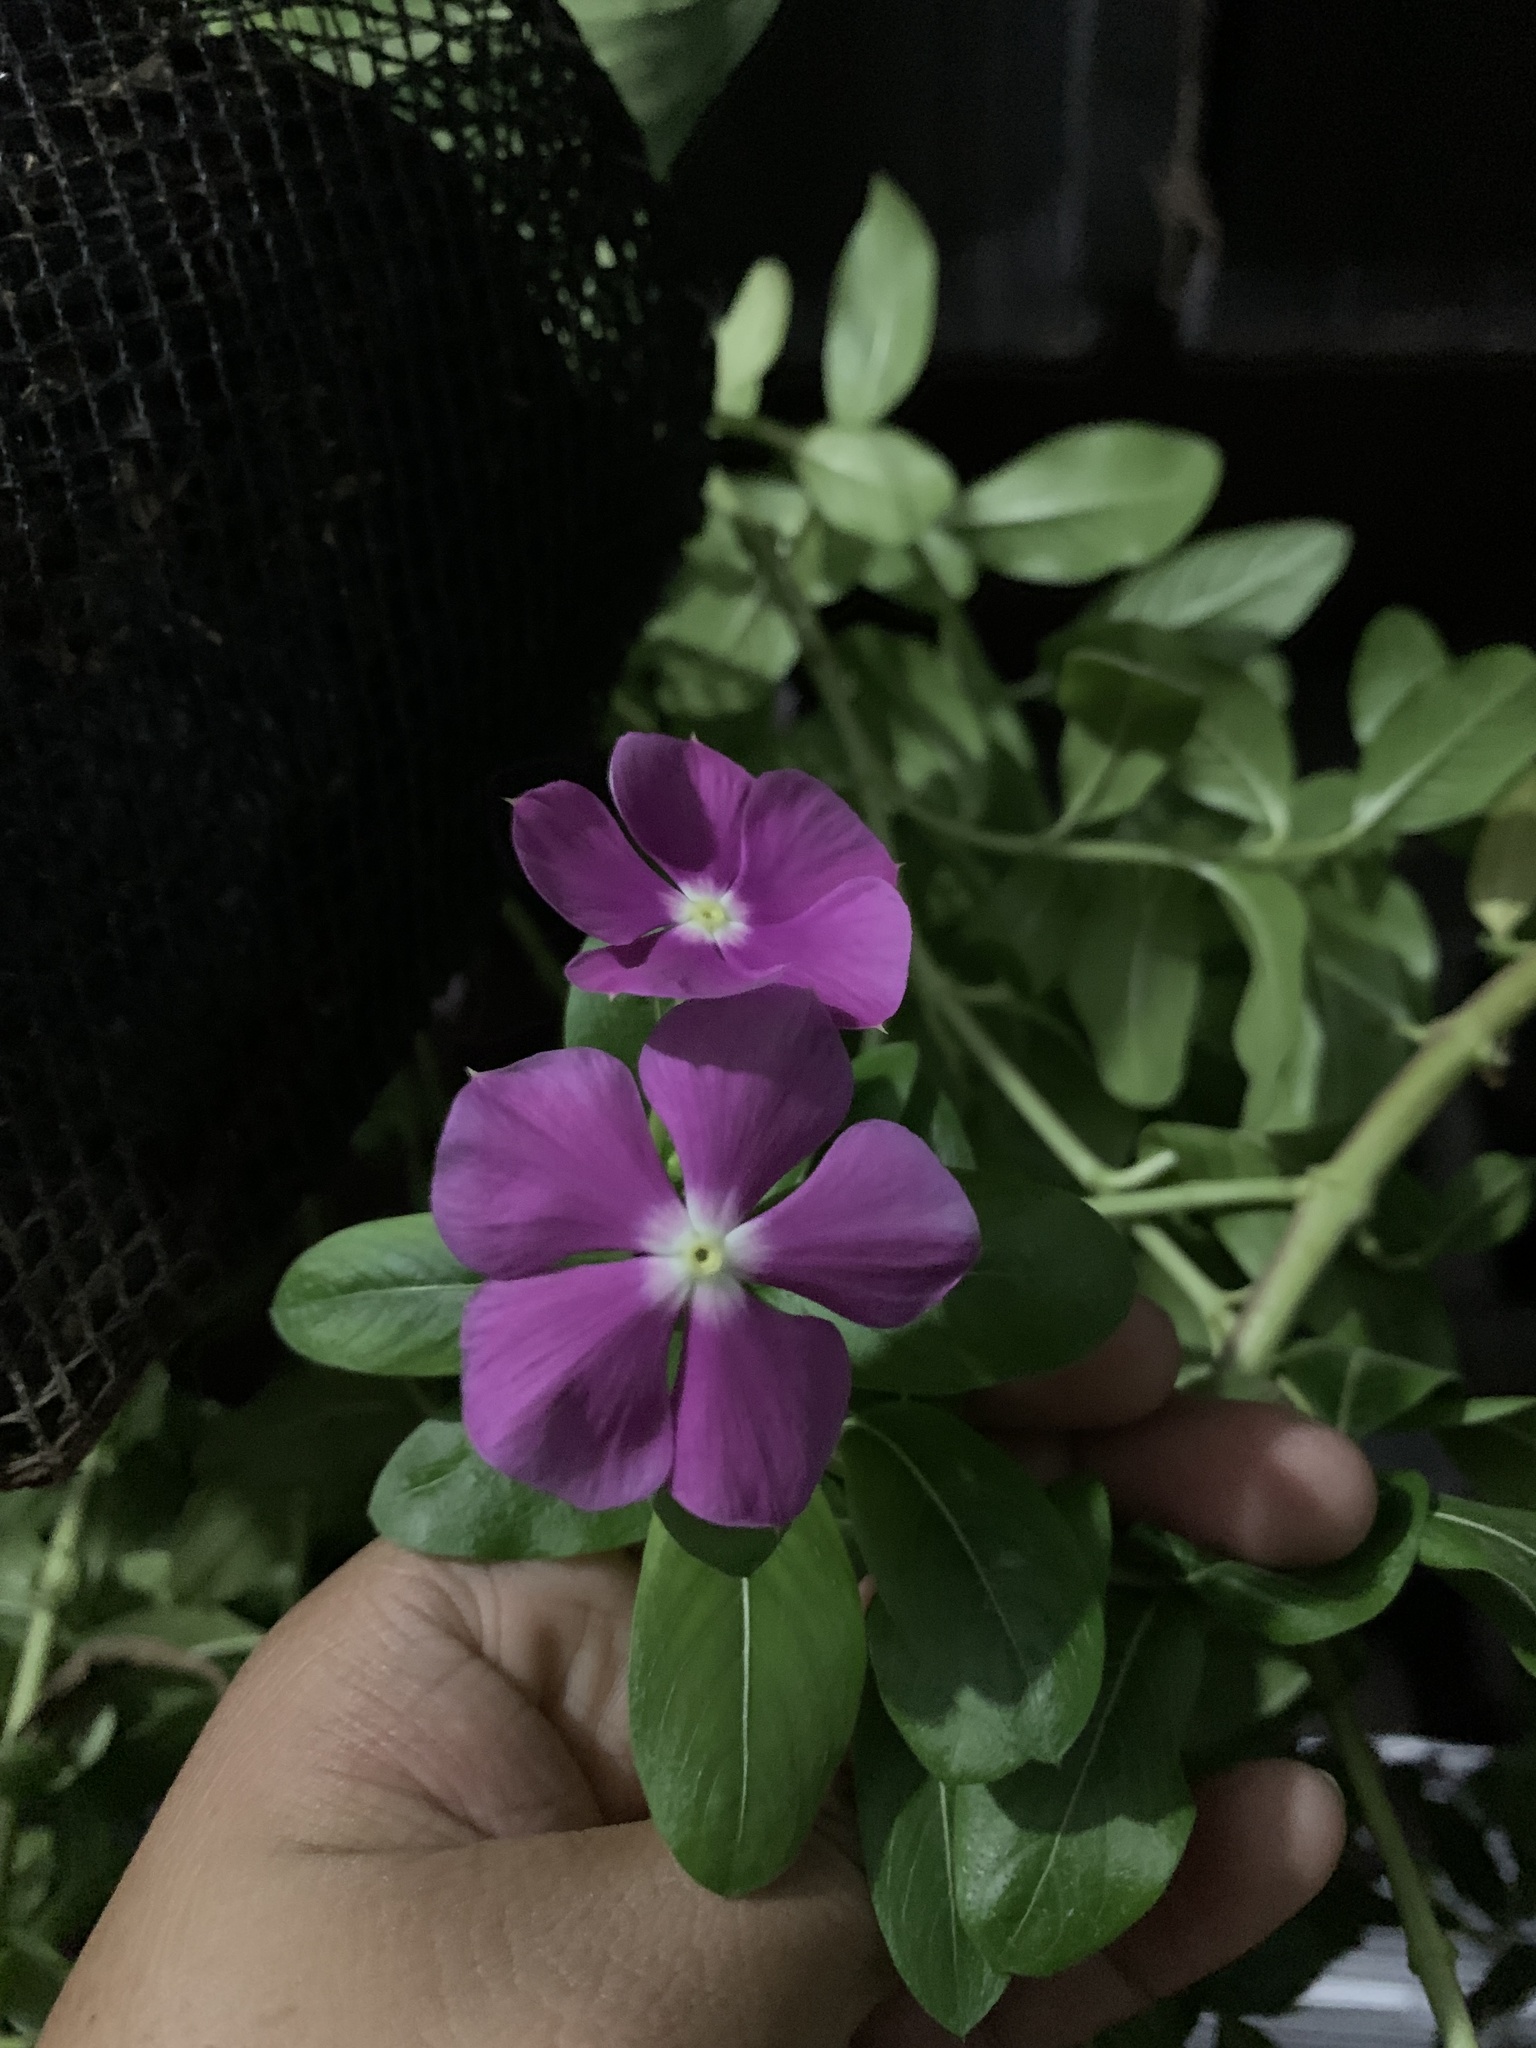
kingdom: Plantae
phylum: Tracheophyta
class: Magnoliopsida
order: Gentianales
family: Apocynaceae
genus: Catharanthus
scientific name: Catharanthus roseus
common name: Madagascar periwinkle
